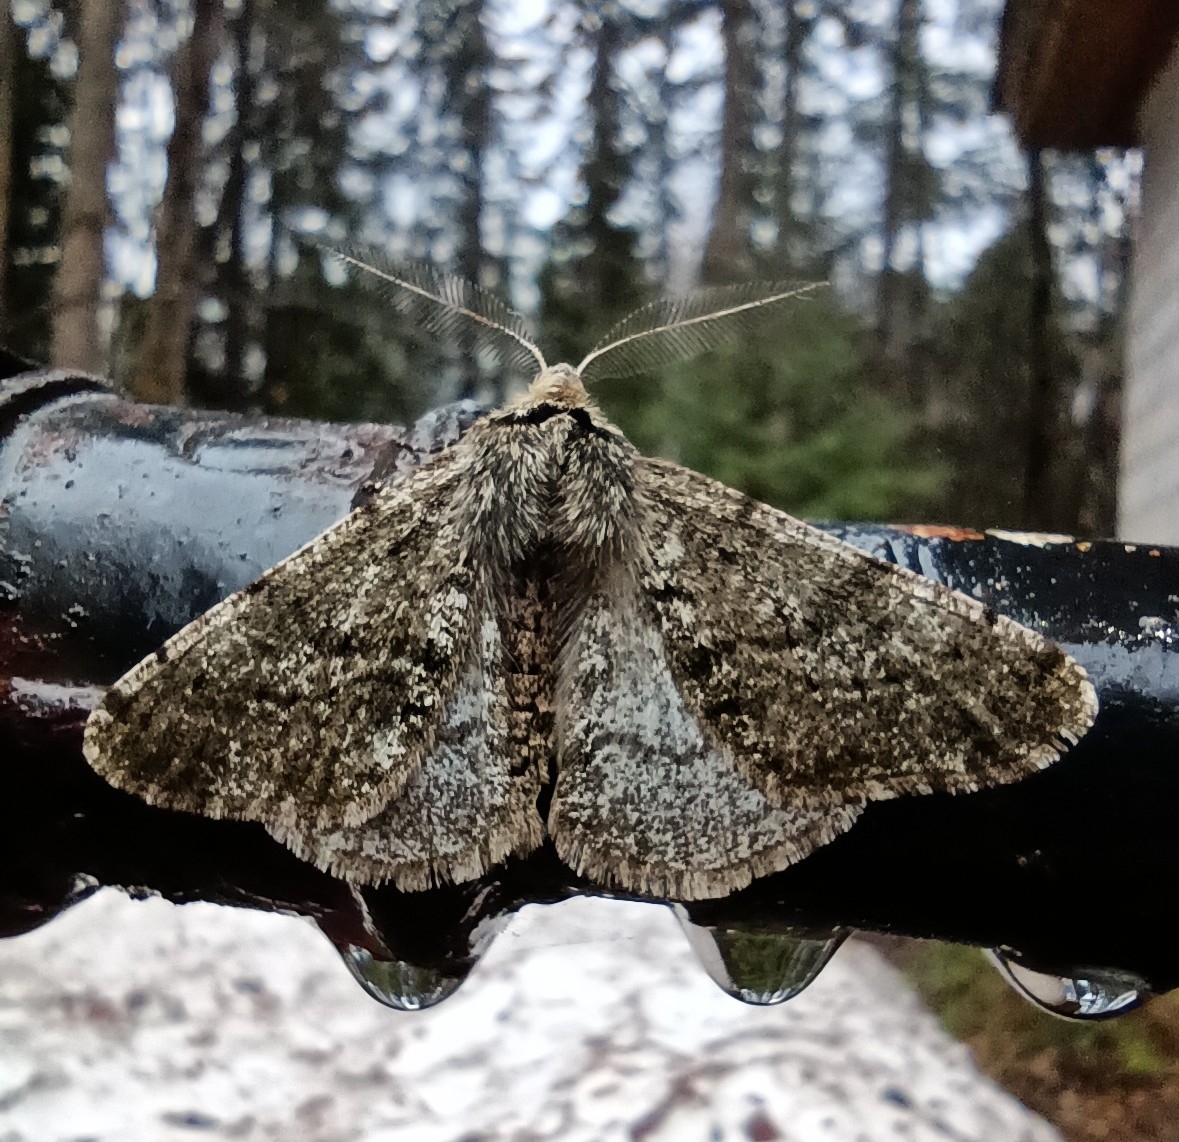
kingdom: Animalia
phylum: Arthropoda
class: Insecta
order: Lepidoptera
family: Geometridae
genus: Phigalia
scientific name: Phigalia pilosaria
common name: Pale brindled beauty
